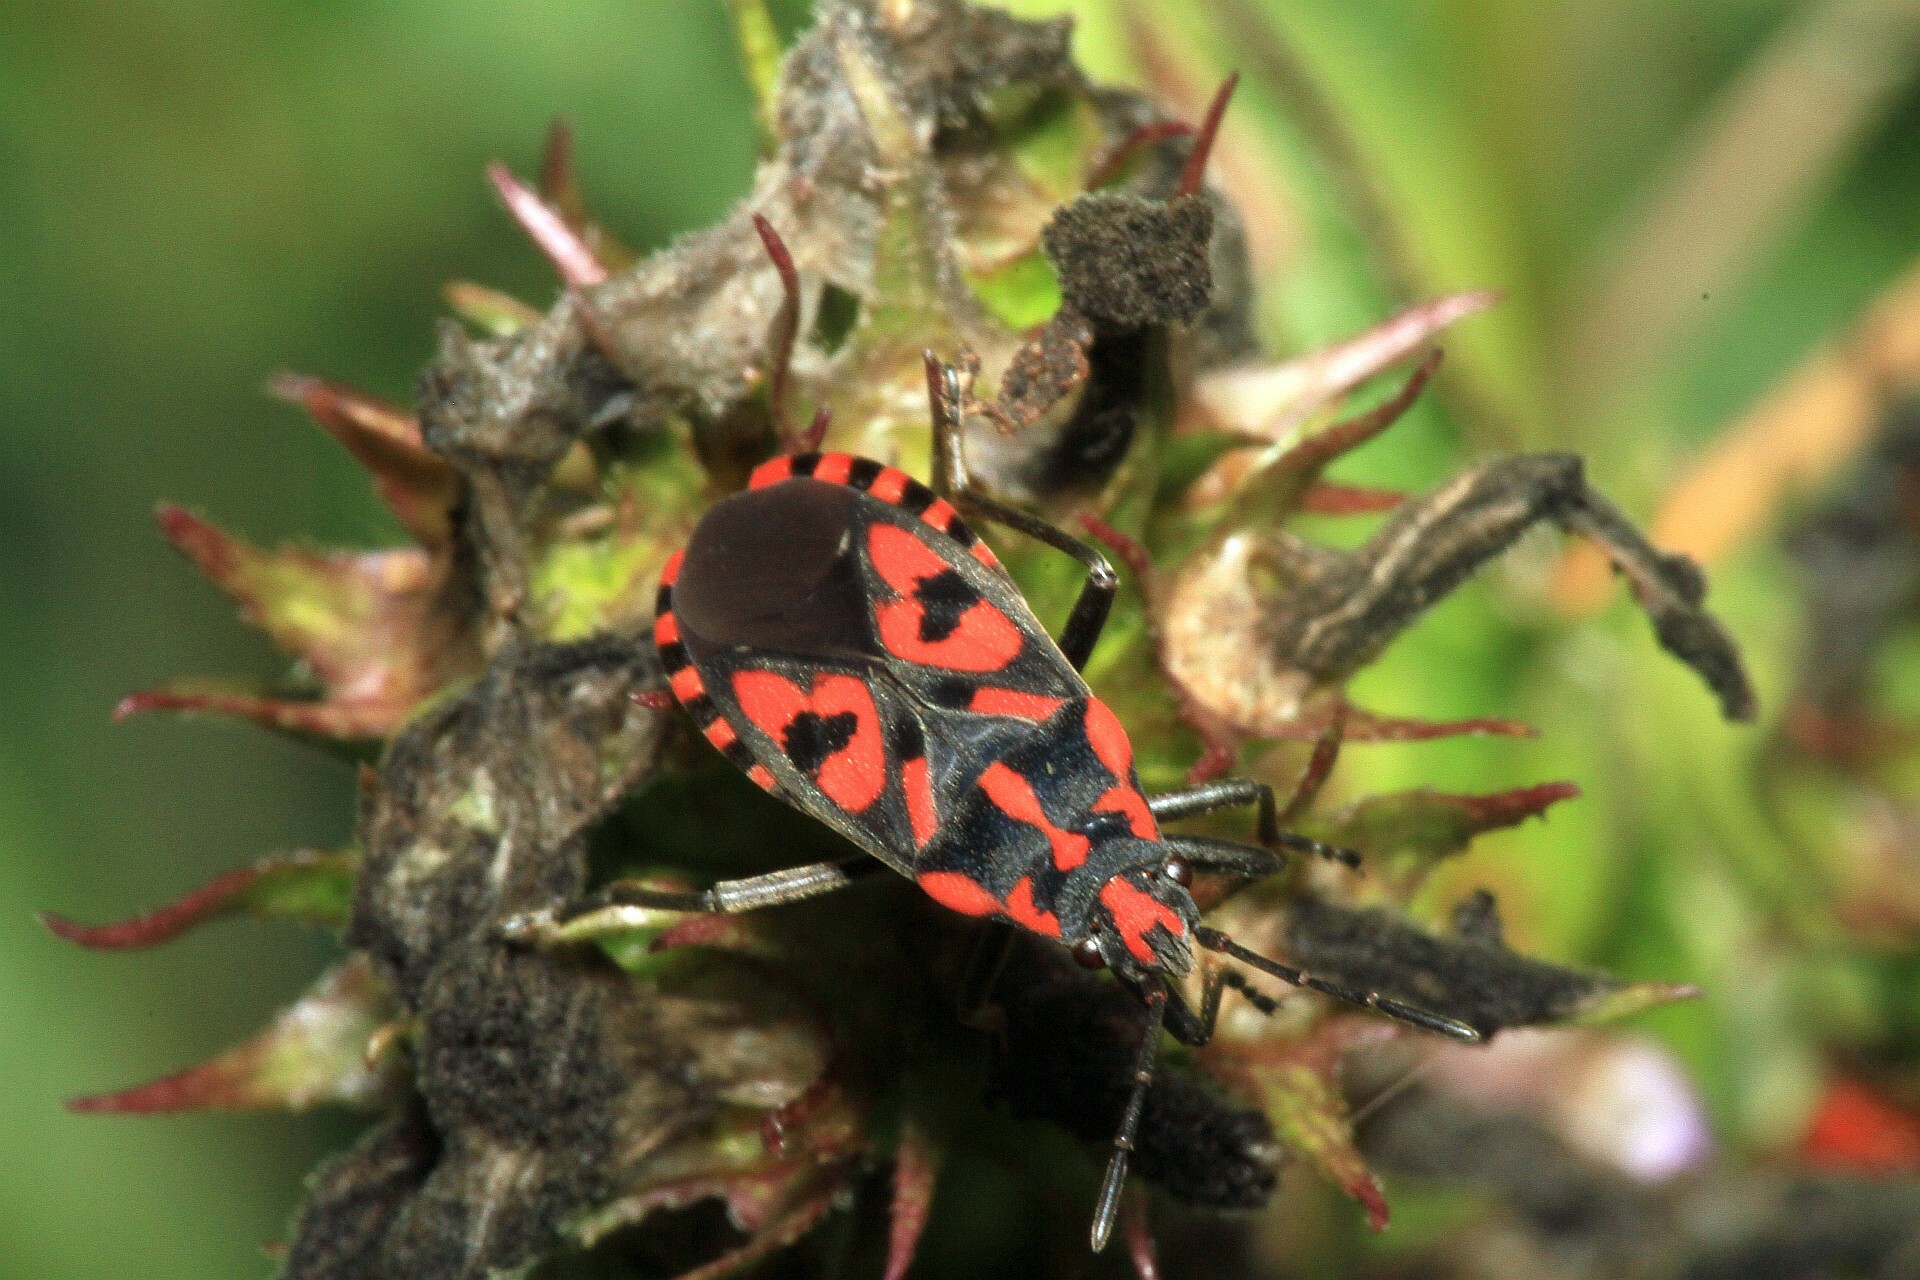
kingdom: Animalia
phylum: Arthropoda
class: Insecta
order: Hemiptera
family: Lygaeidae
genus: Spilostethus
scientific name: Spilostethus saxatilis
